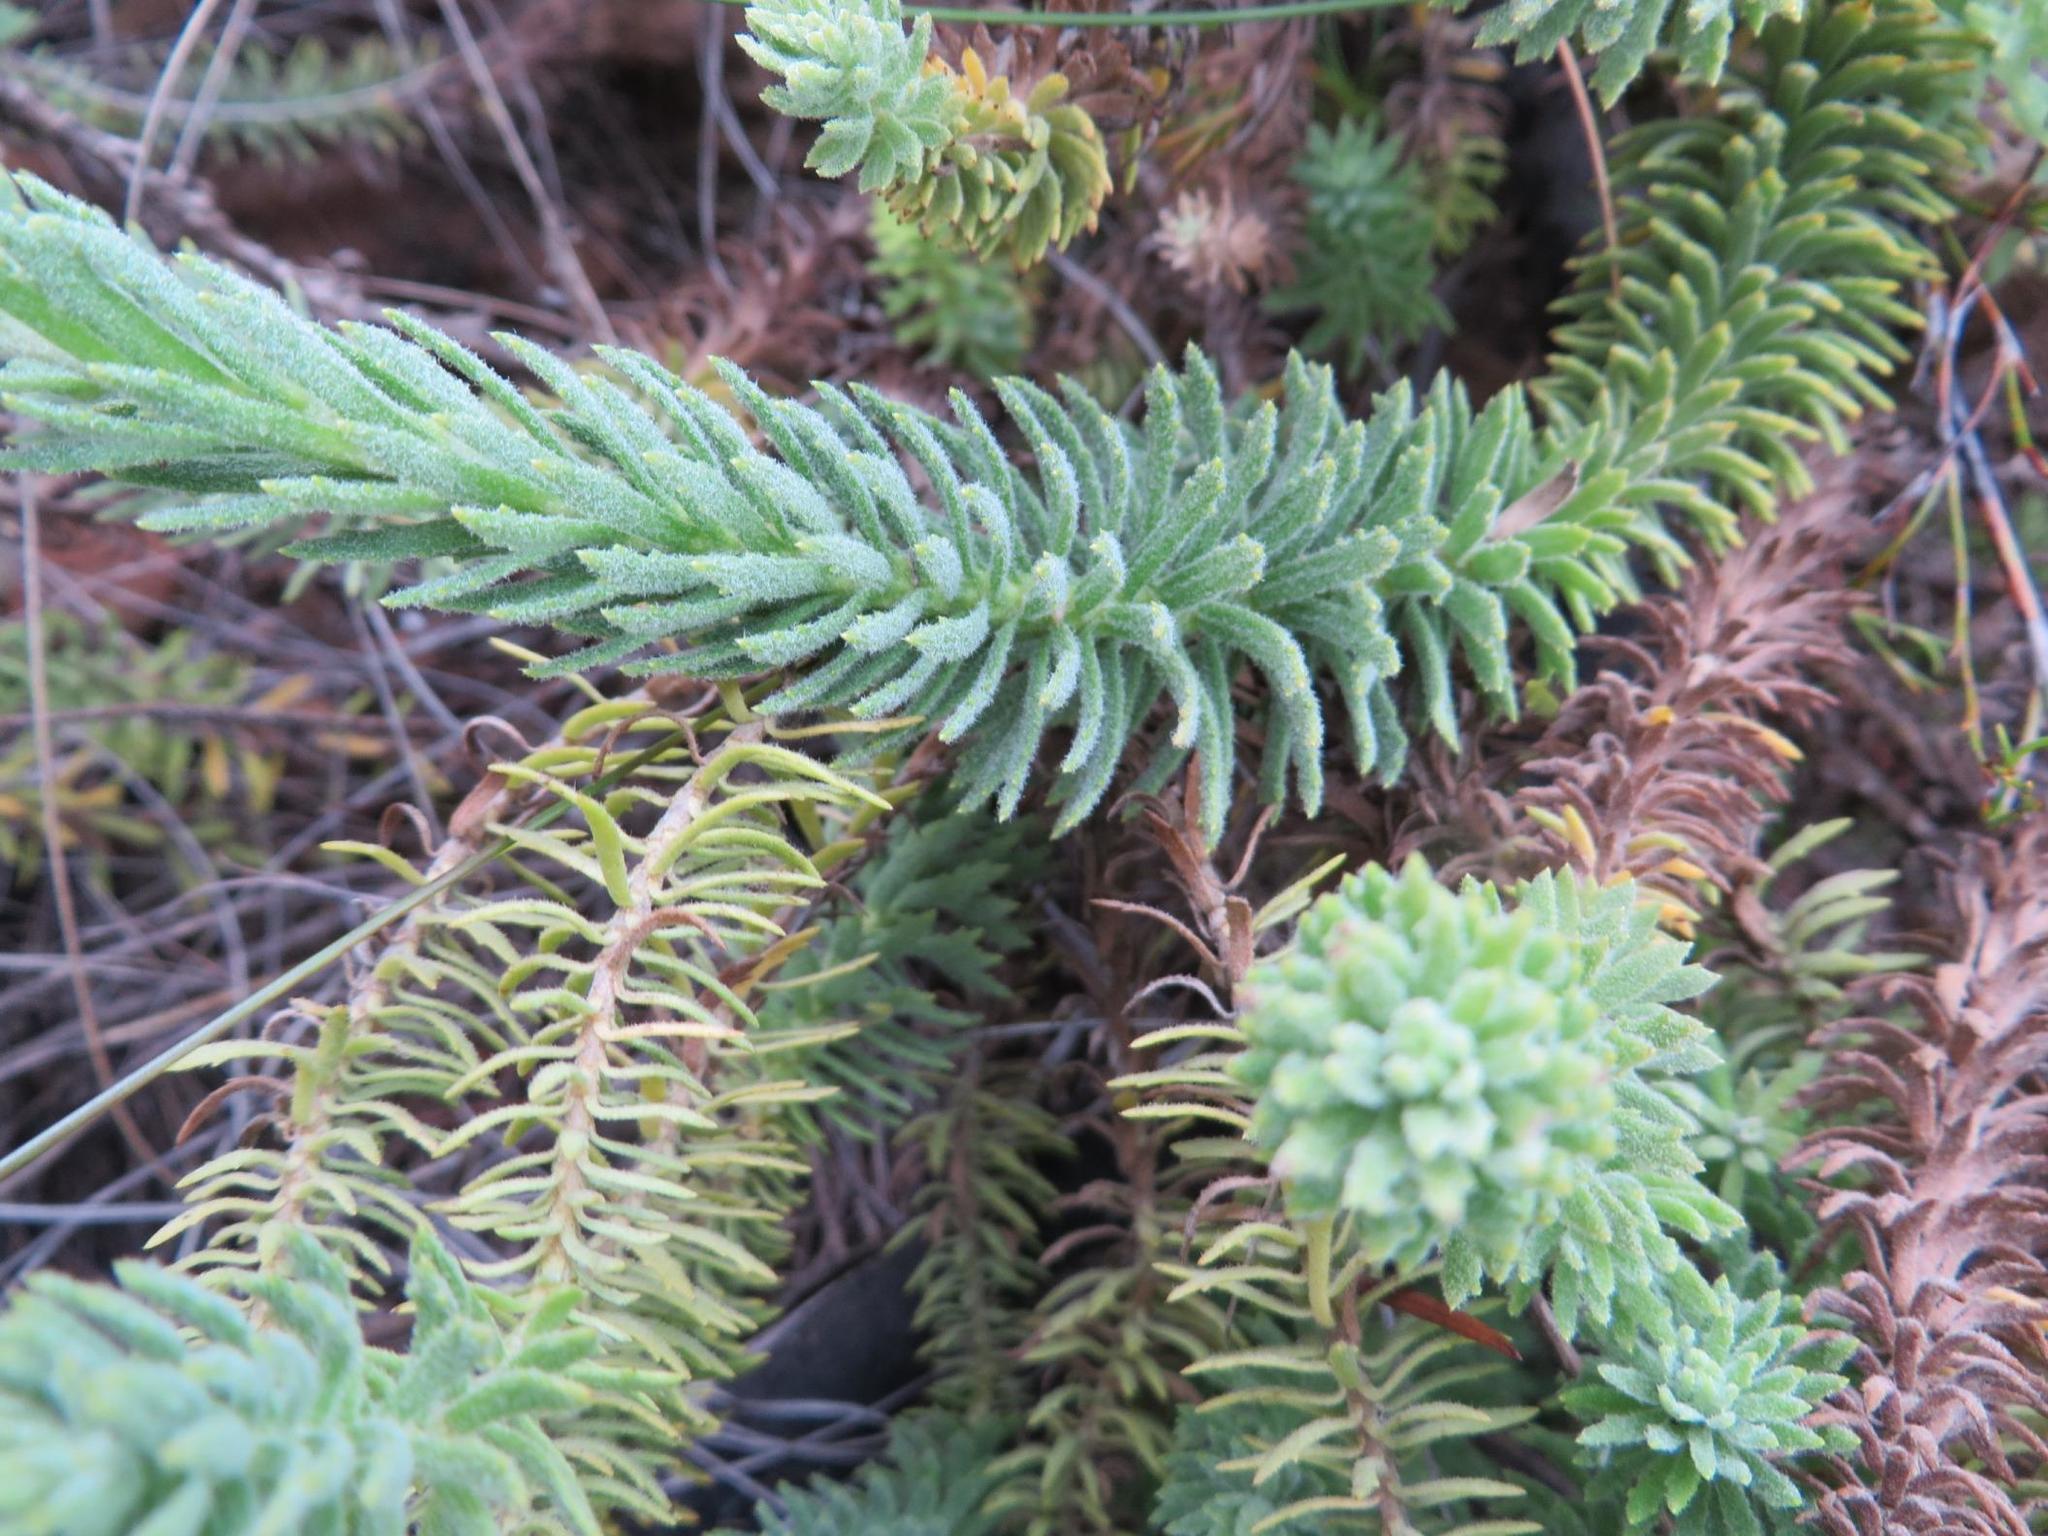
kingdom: Plantae
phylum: Tracheophyta
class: Magnoliopsida
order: Asterales
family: Asteraceae
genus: Osmitopsis
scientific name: Osmitopsis afra
